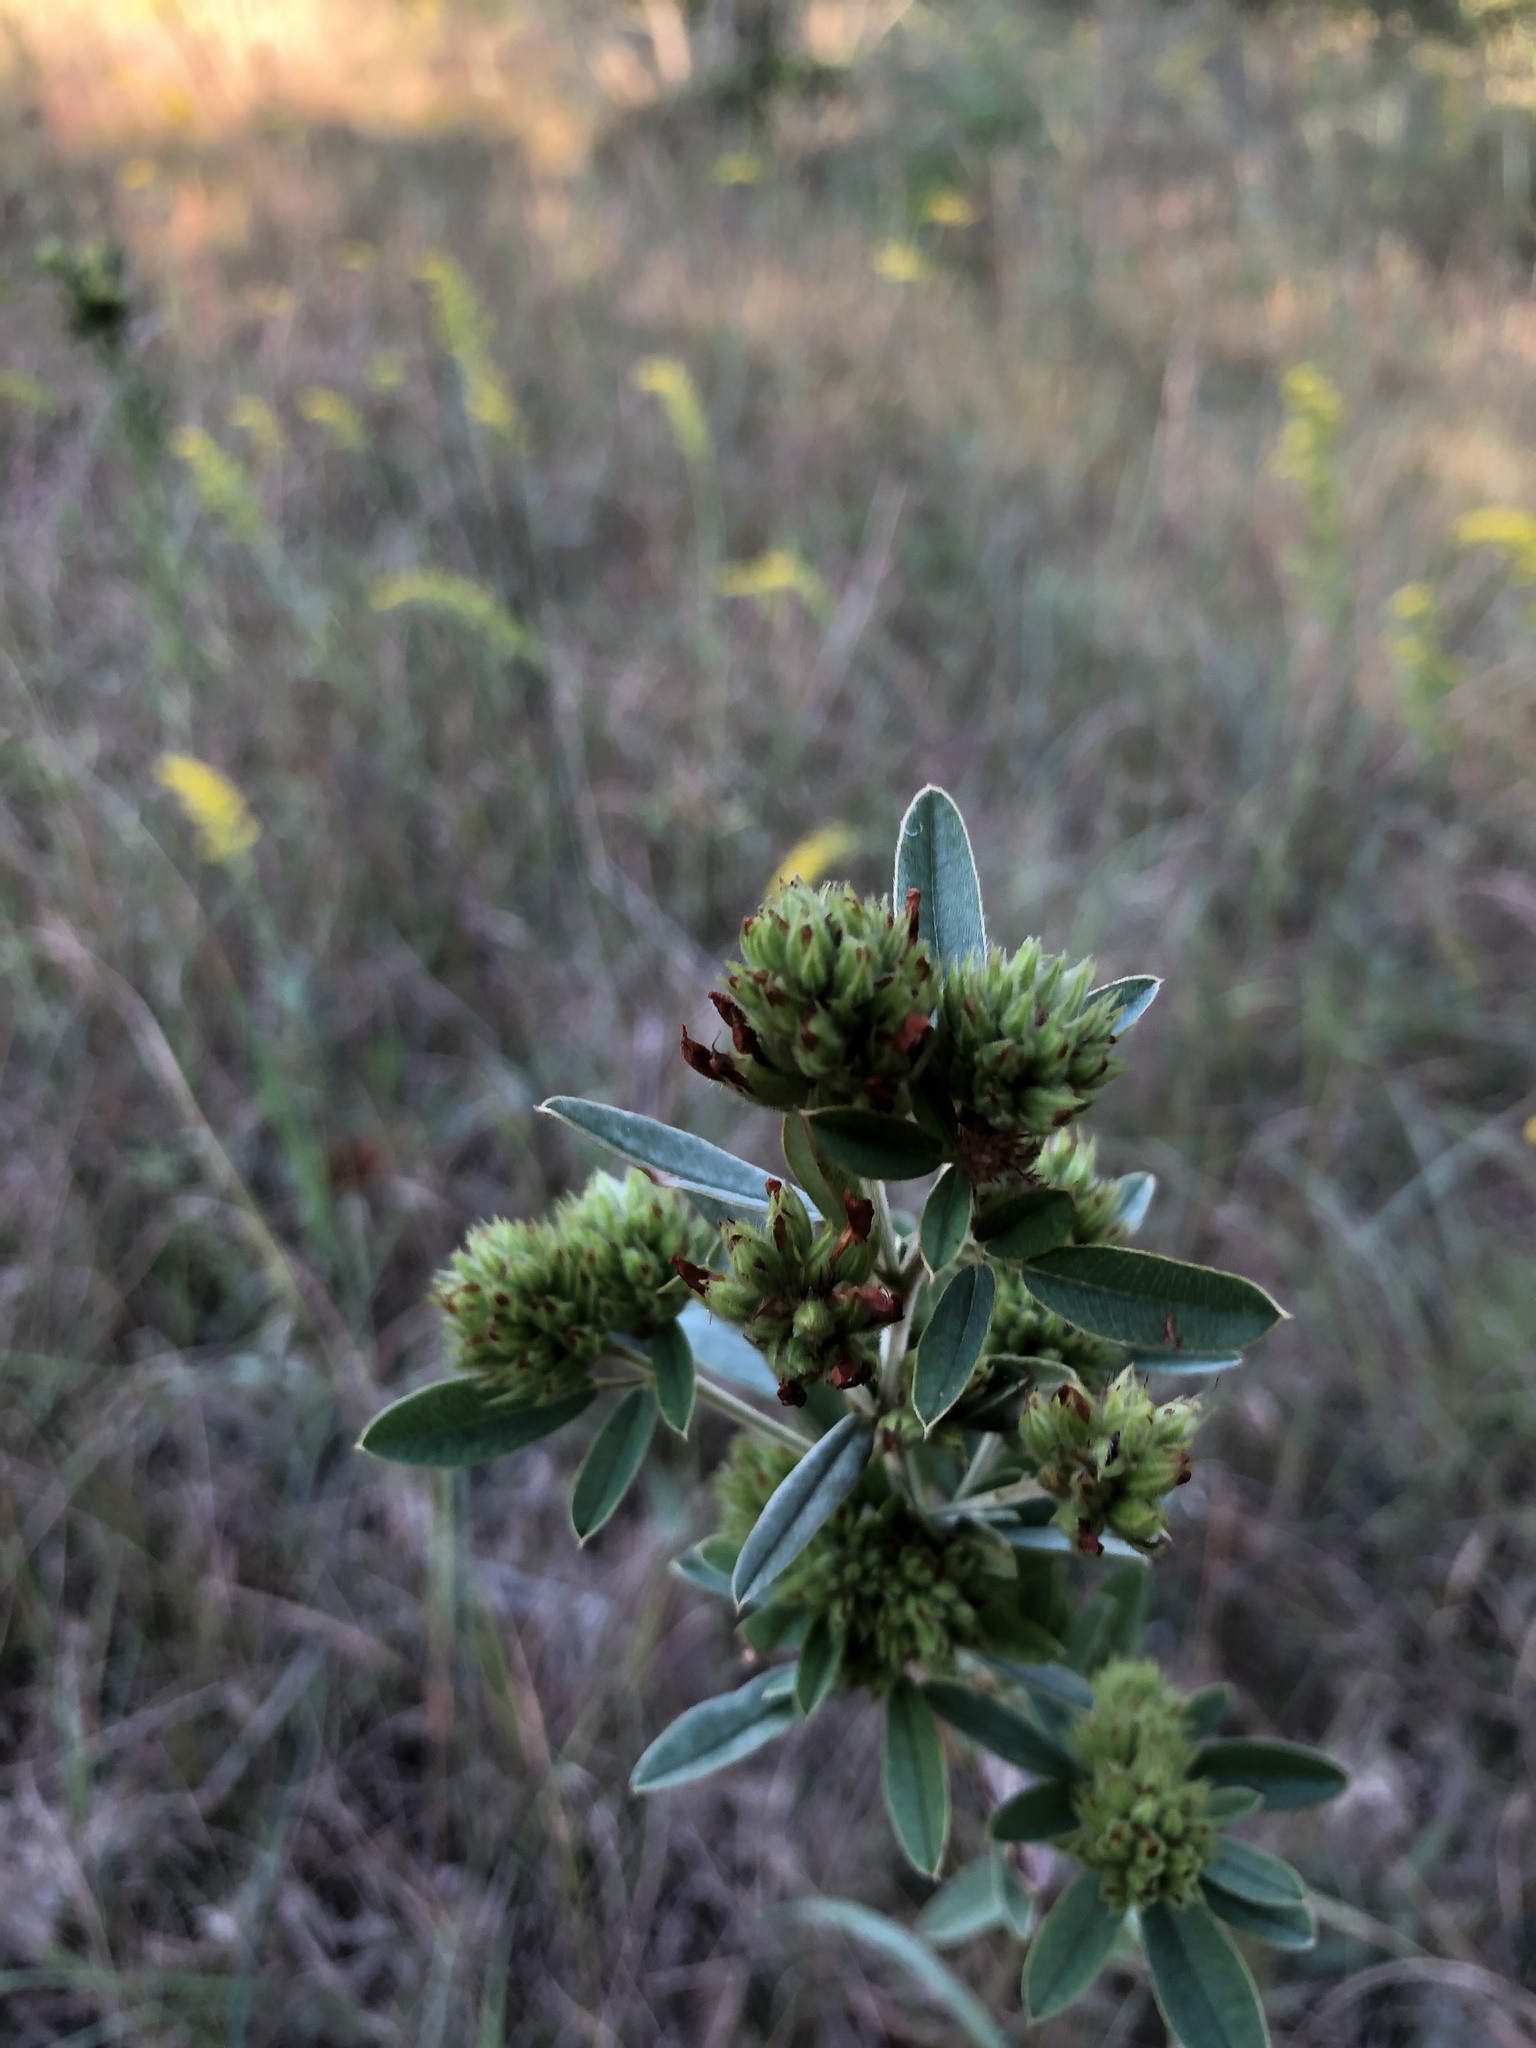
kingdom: Plantae
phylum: Tracheophyta
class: Magnoliopsida
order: Fabales
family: Fabaceae
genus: Lespedeza
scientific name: Lespedeza capitata
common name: Dusty clover
